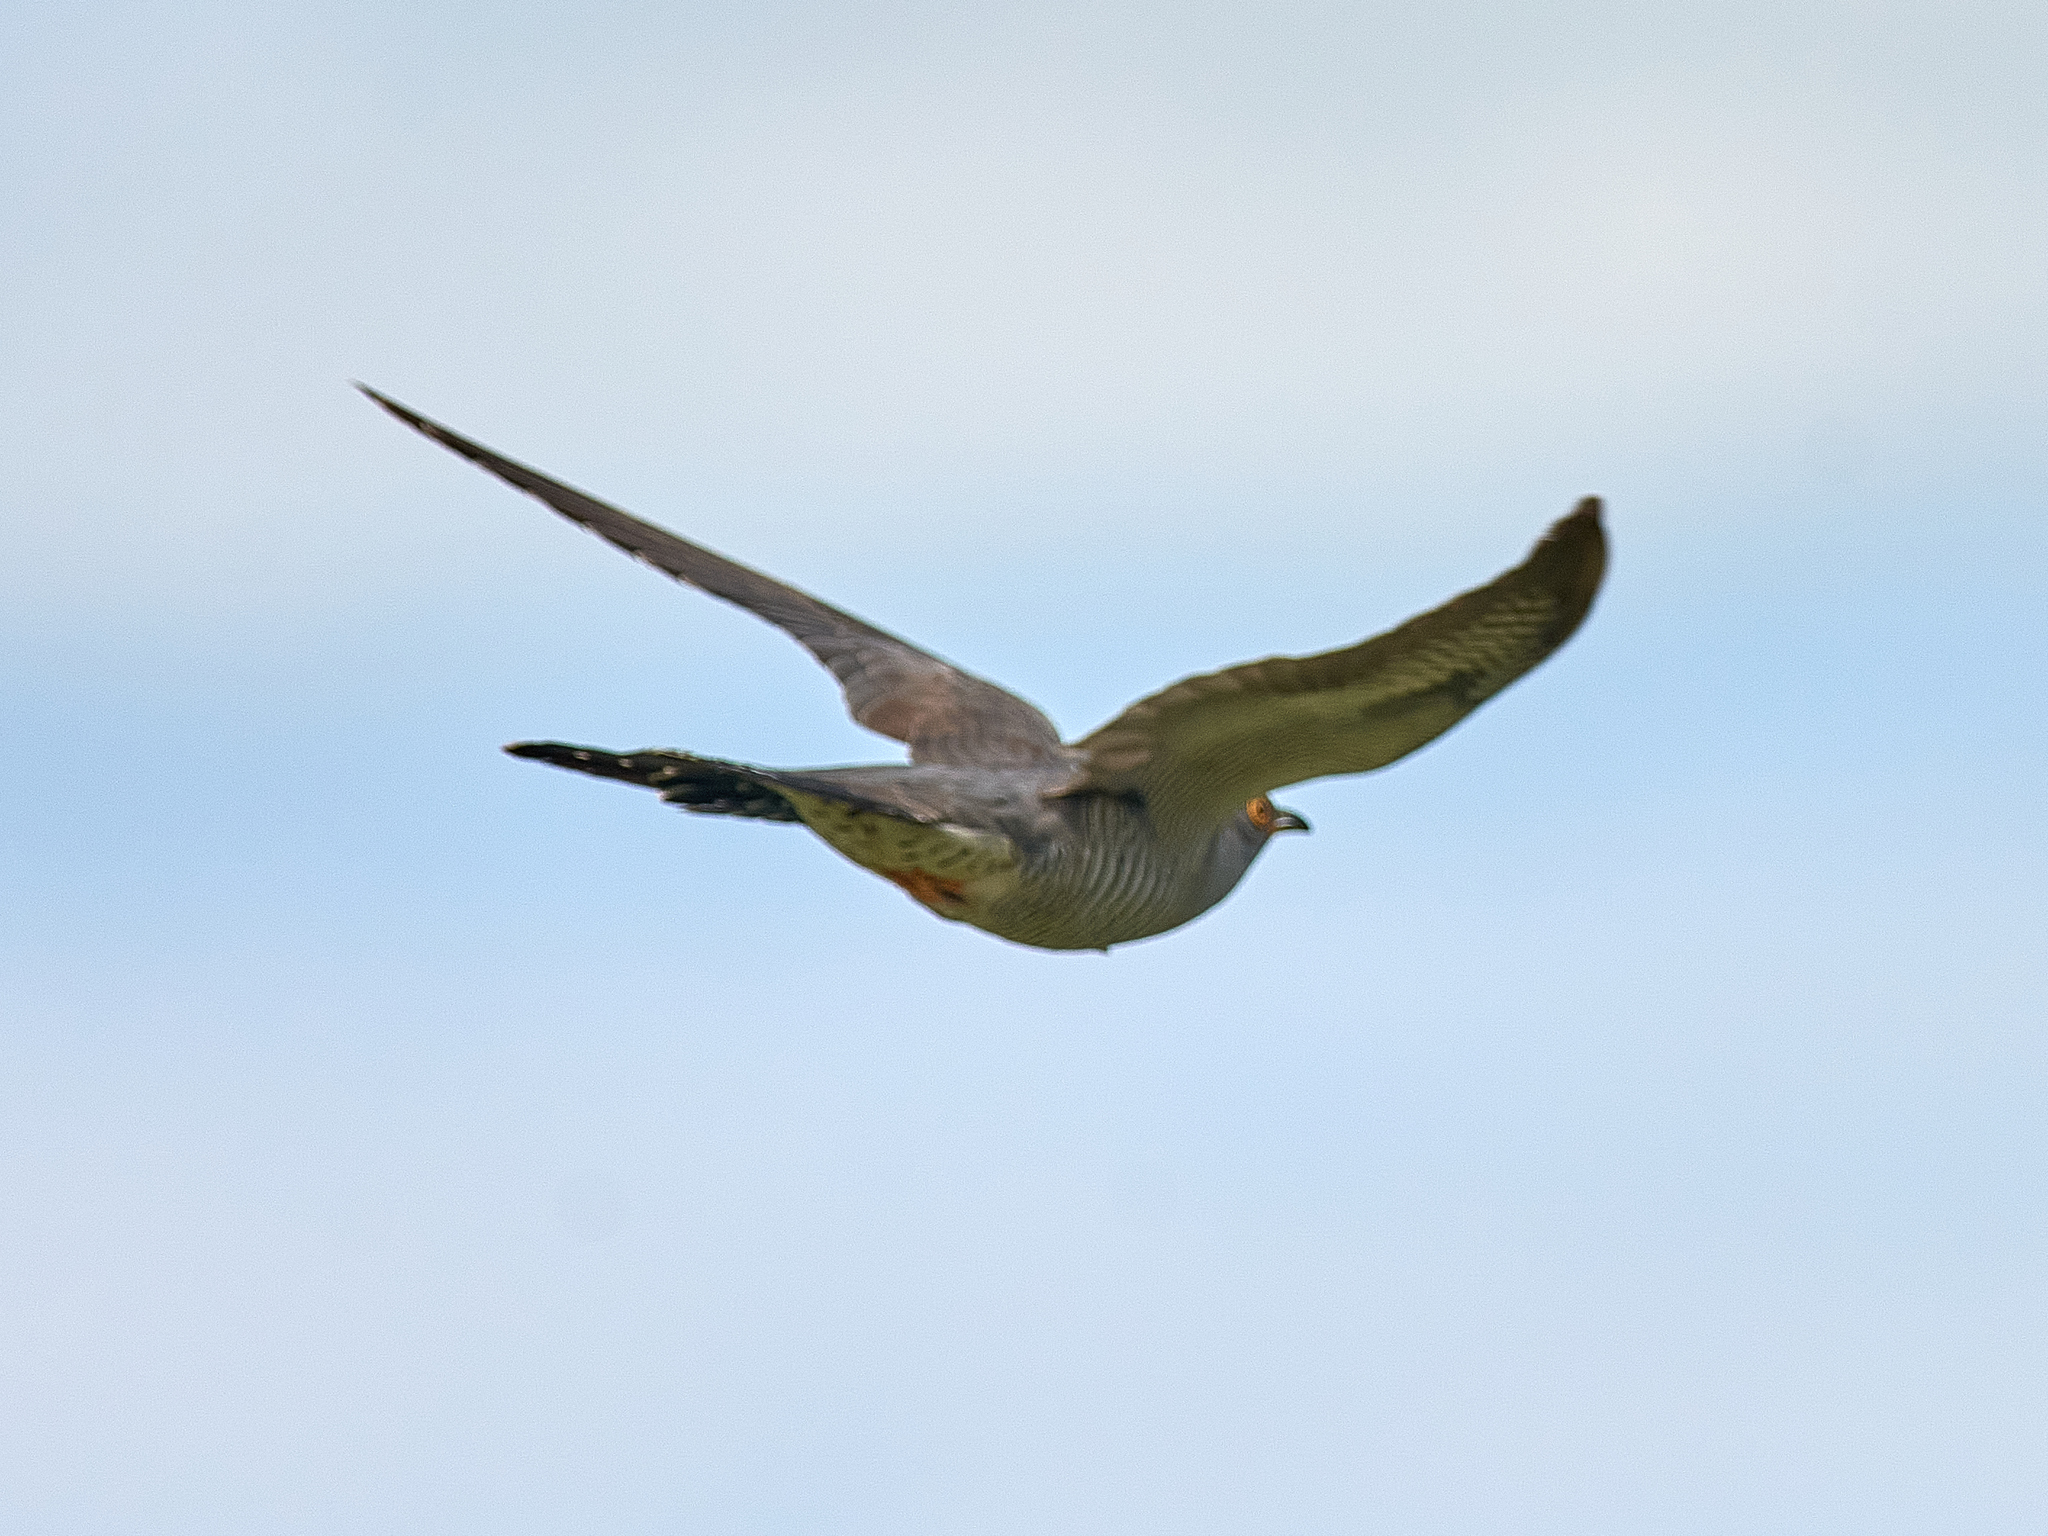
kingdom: Animalia
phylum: Chordata
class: Aves
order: Cuculiformes
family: Cuculidae
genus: Cuculus
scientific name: Cuculus canorus
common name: Common cuckoo
